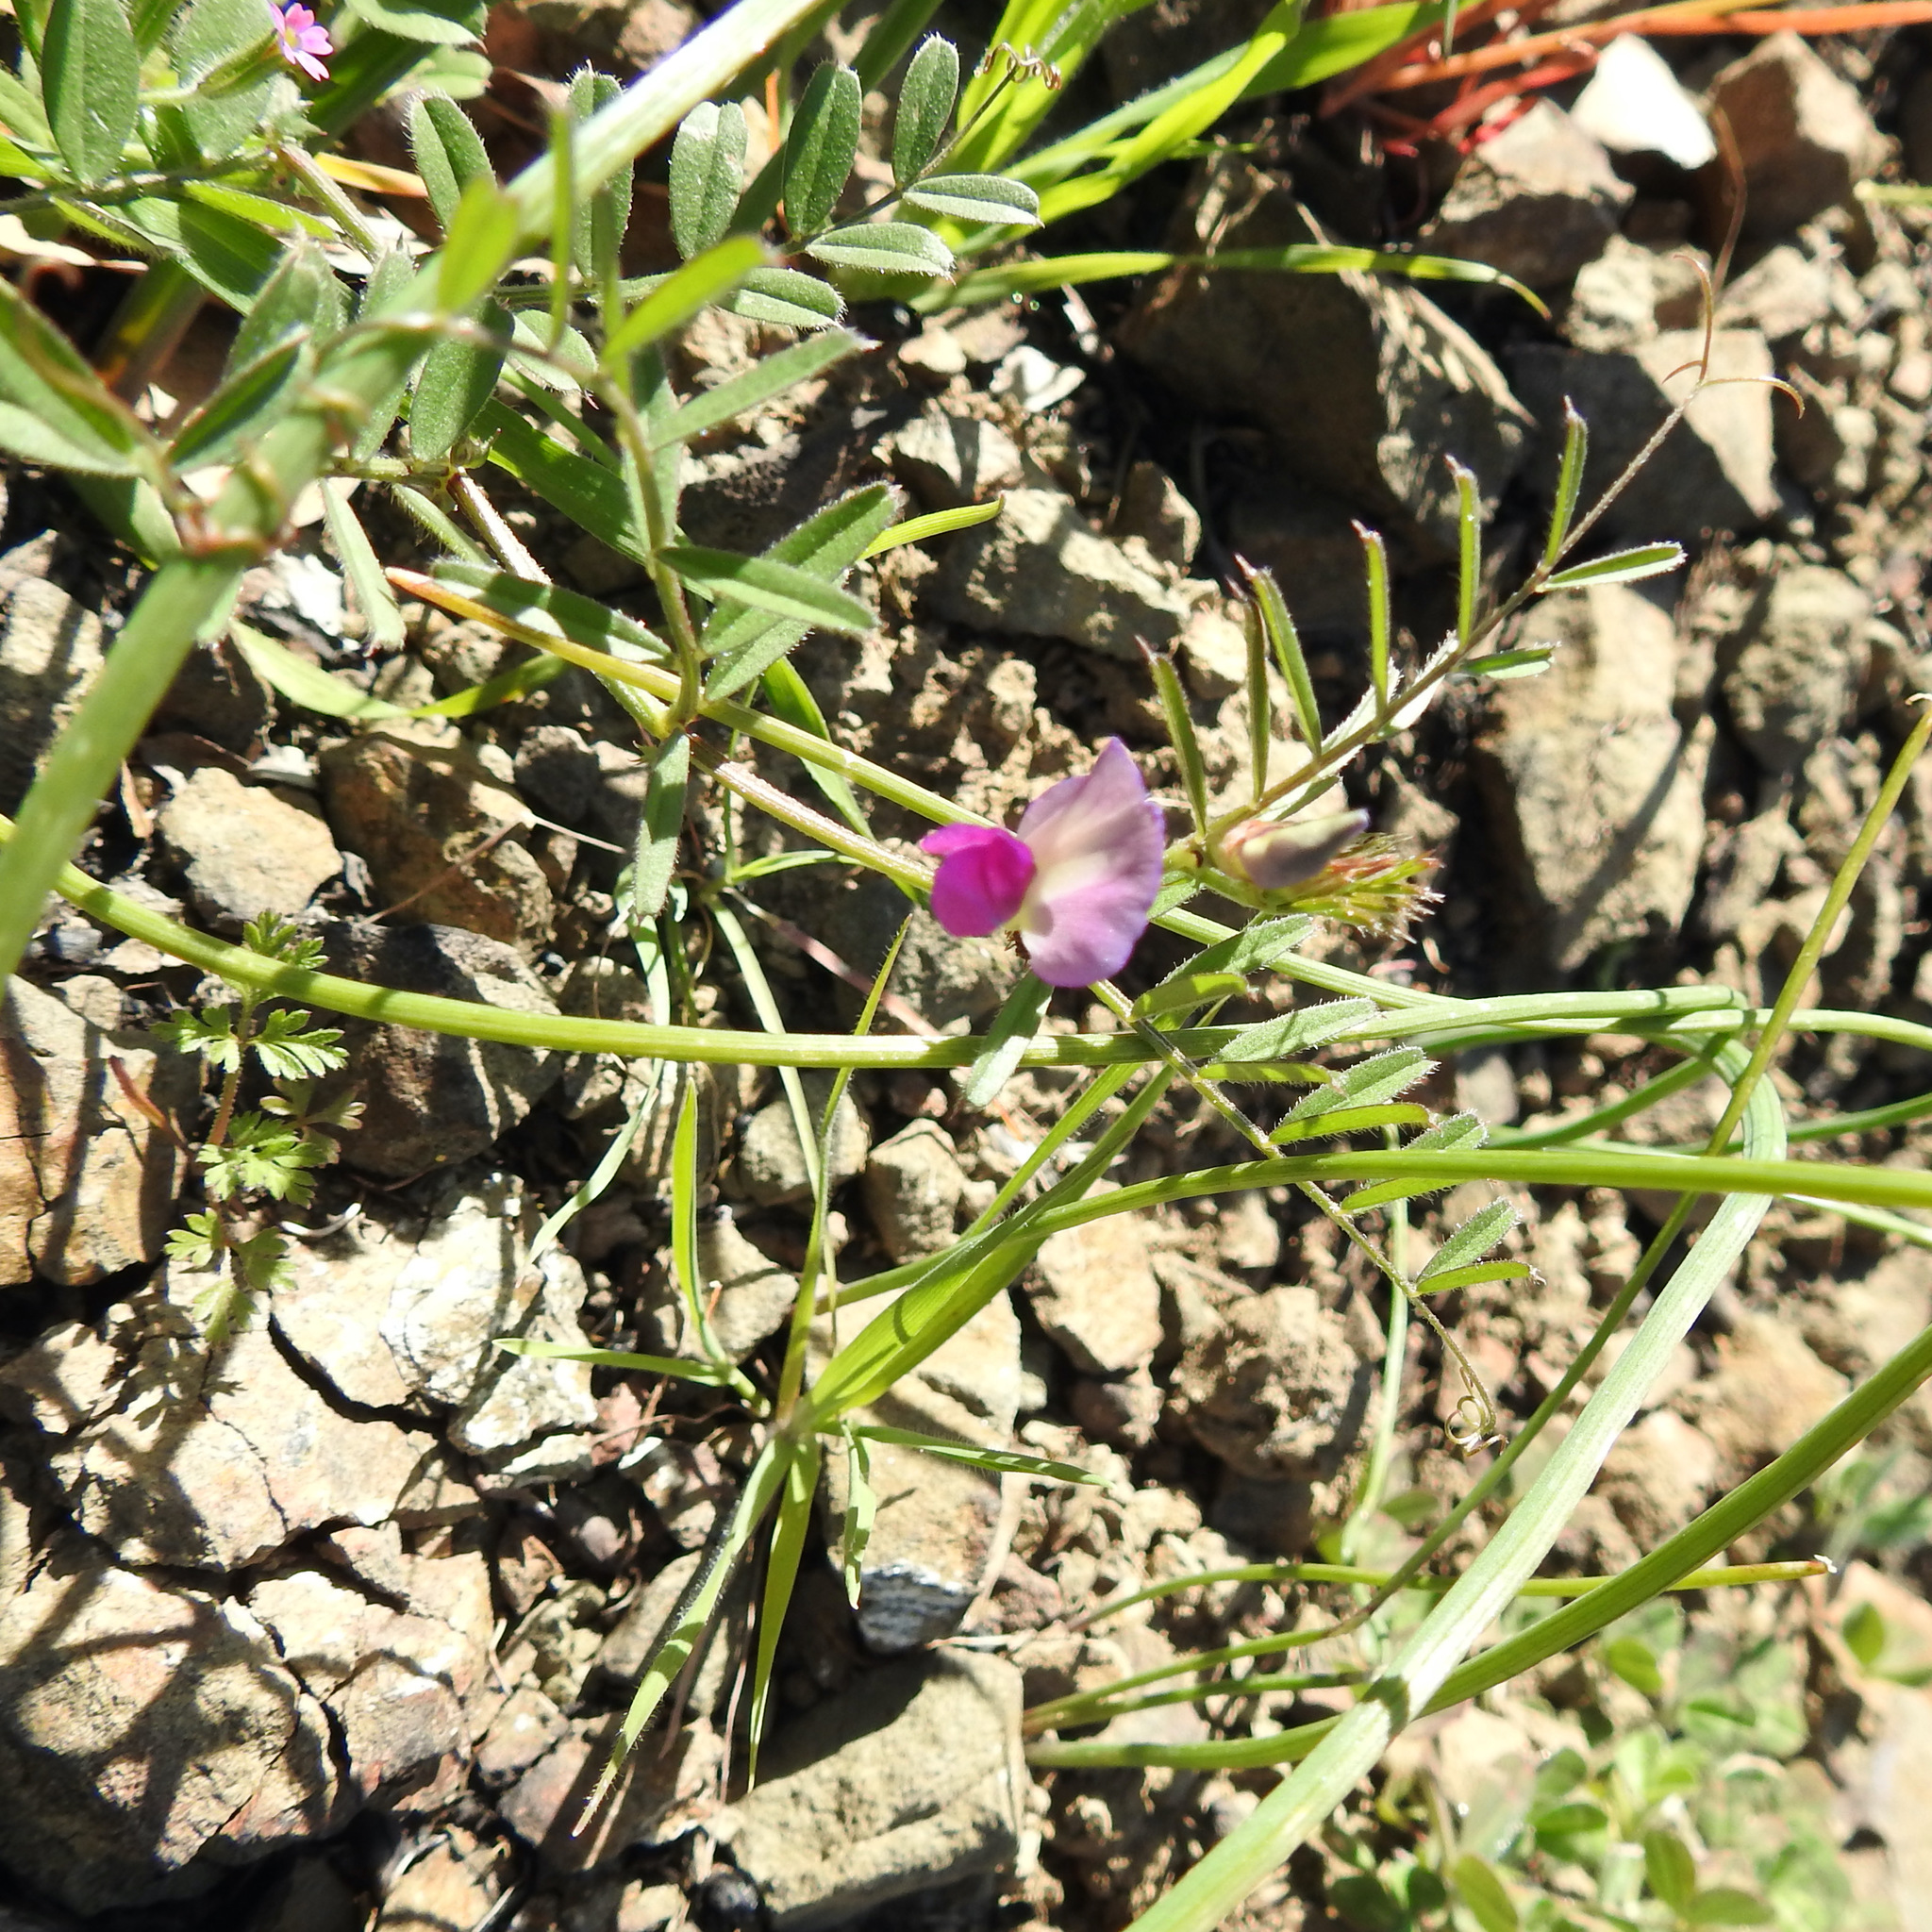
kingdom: Plantae
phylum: Tracheophyta
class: Magnoliopsida
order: Fabales
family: Fabaceae
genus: Vicia
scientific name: Vicia sativa
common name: Garden vetch
